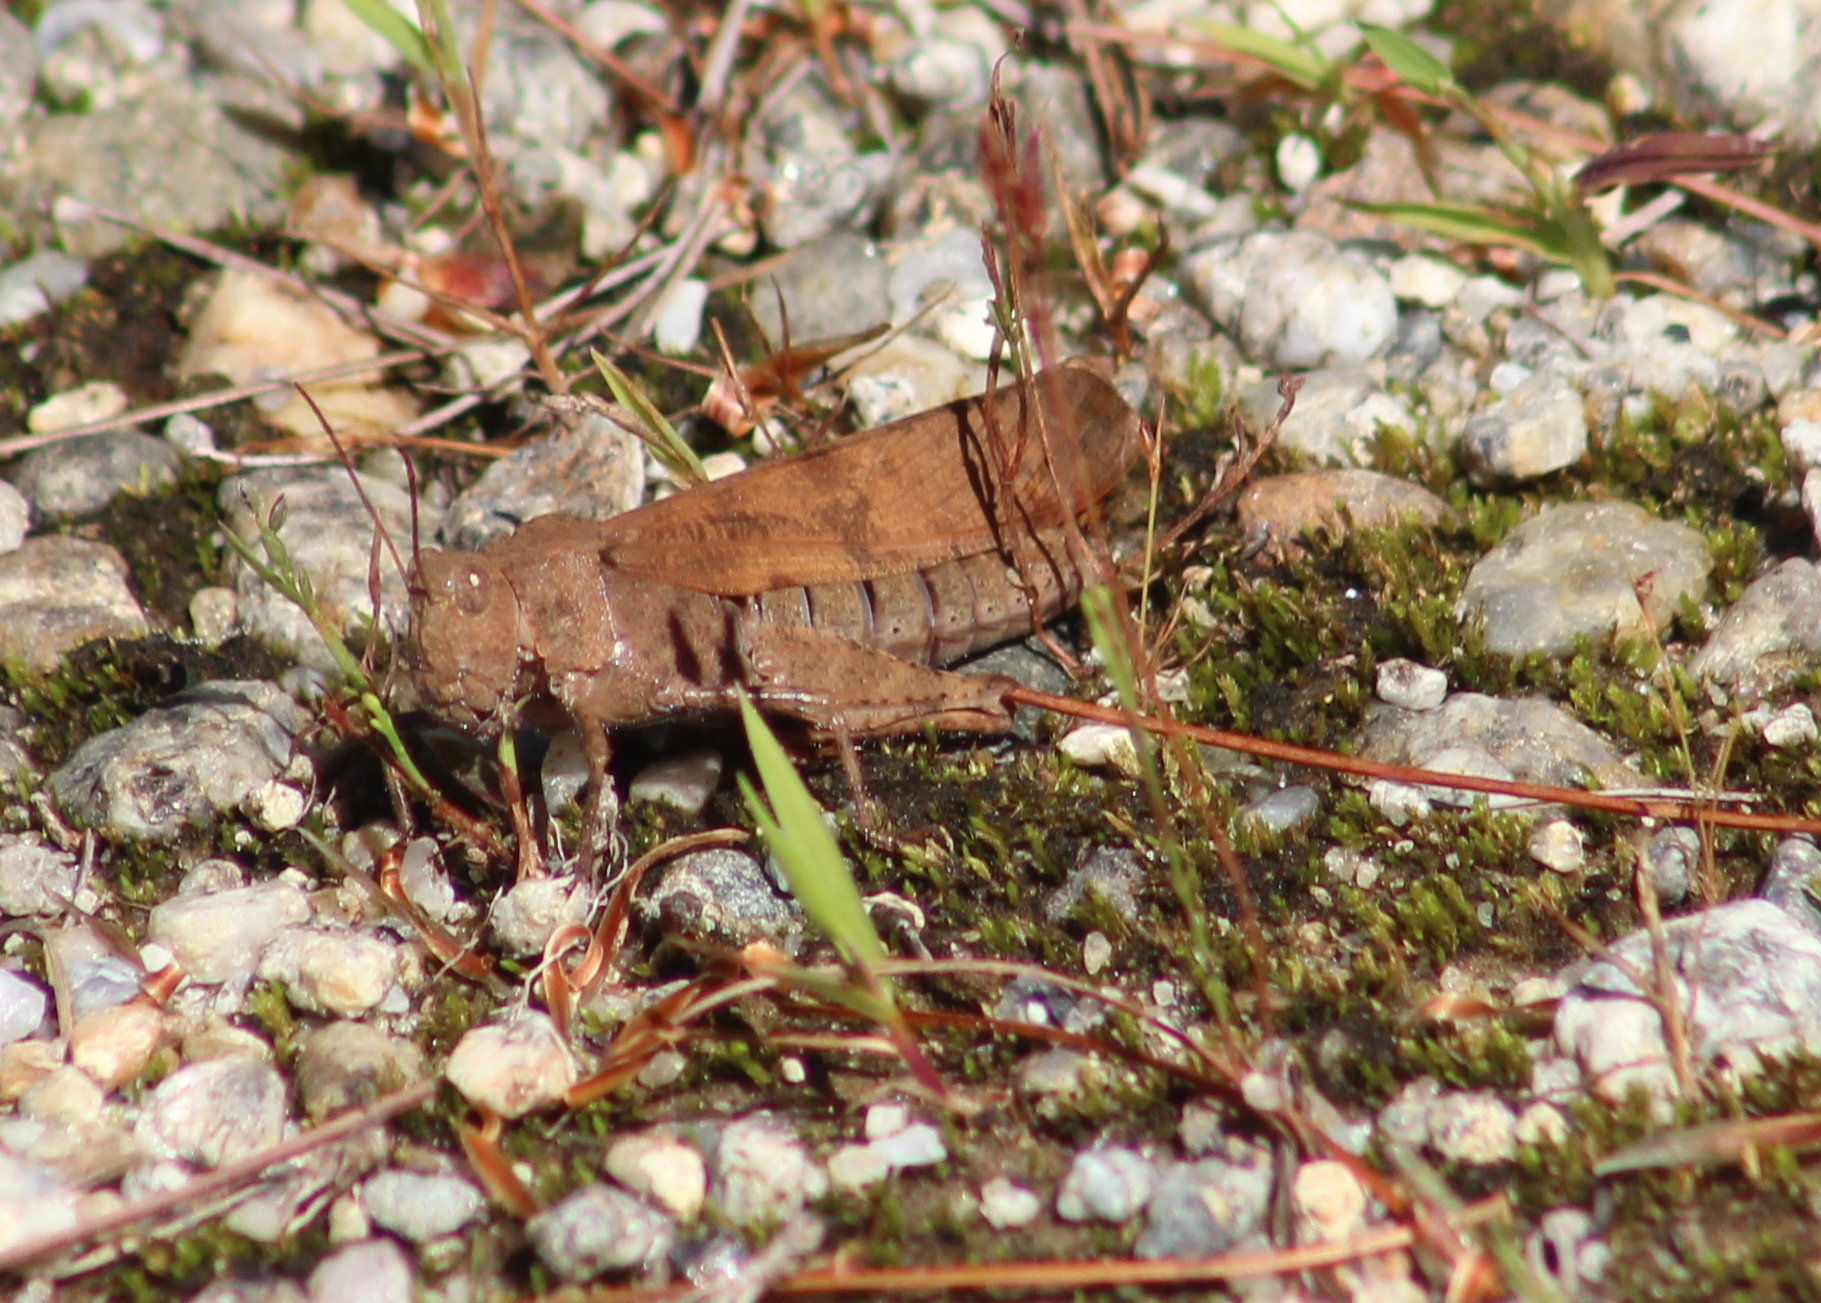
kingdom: Animalia
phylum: Arthropoda
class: Insecta
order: Orthoptera
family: Acrididae
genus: Dissosteira
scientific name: Dissosteira carolina
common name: Carolina grasshopper
